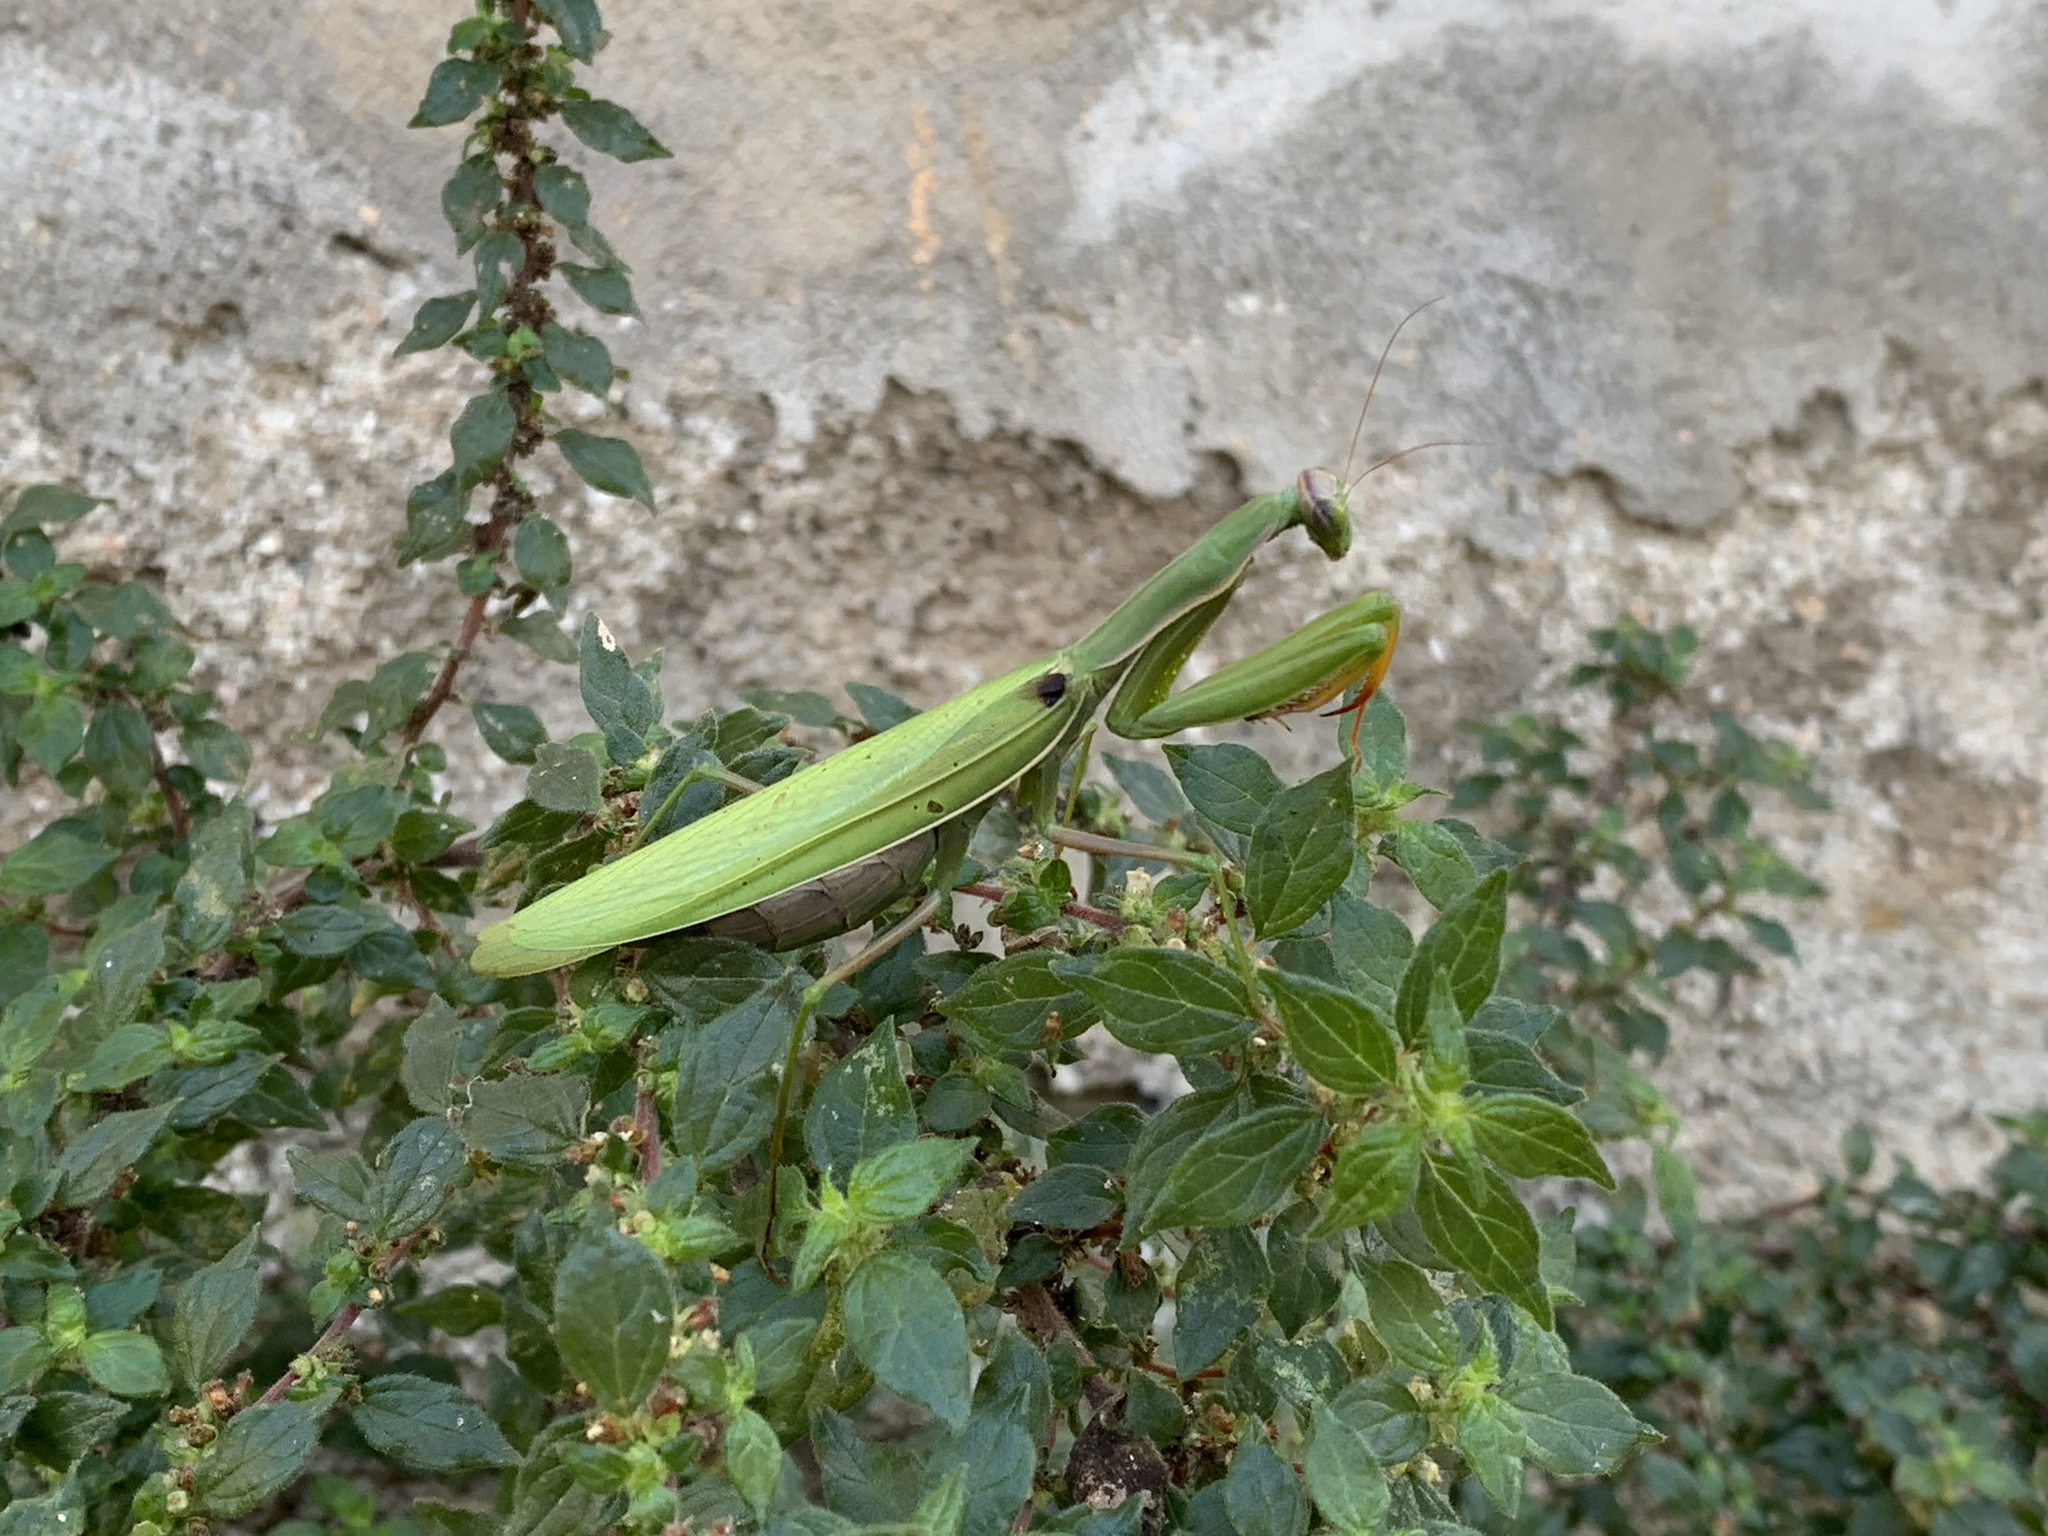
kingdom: Animalia
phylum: Arthropoda
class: Insecta
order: Mantodea
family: Mantidae
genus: Mantis
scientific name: Mantis religiosa
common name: Praying mantis
